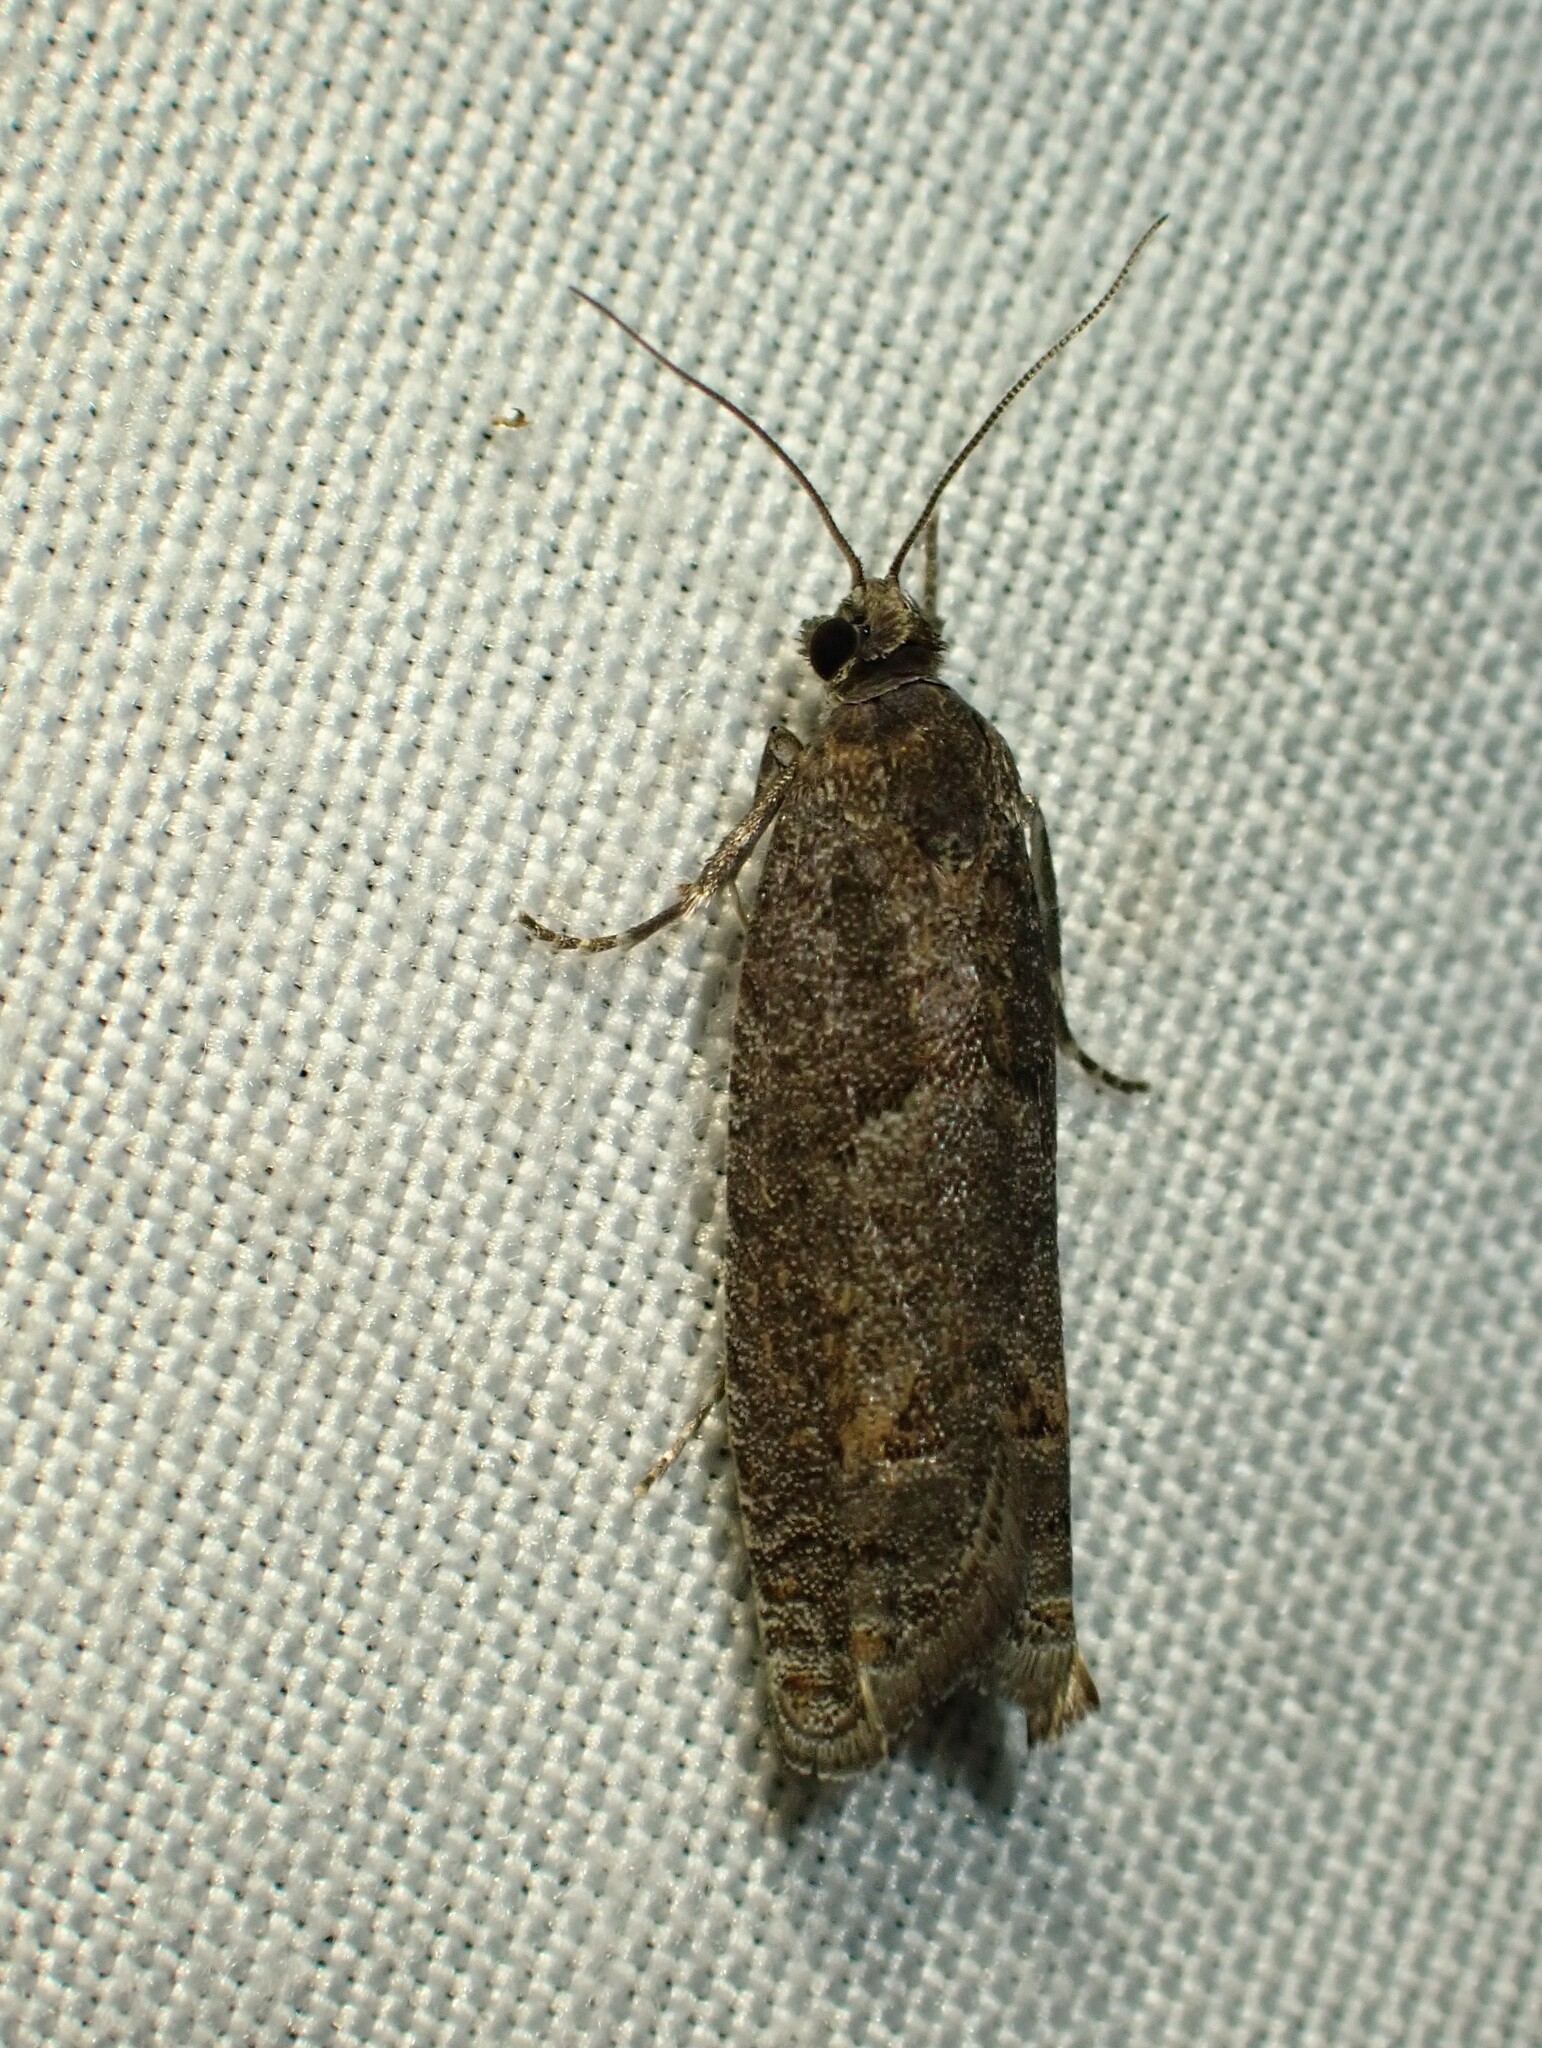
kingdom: Animalia
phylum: Arthropoda
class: Insecta
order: Lepidoptera
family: Tortricidae
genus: Pseudexentera
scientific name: Pseudexentera oregonana
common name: Early aspen leafcurler
